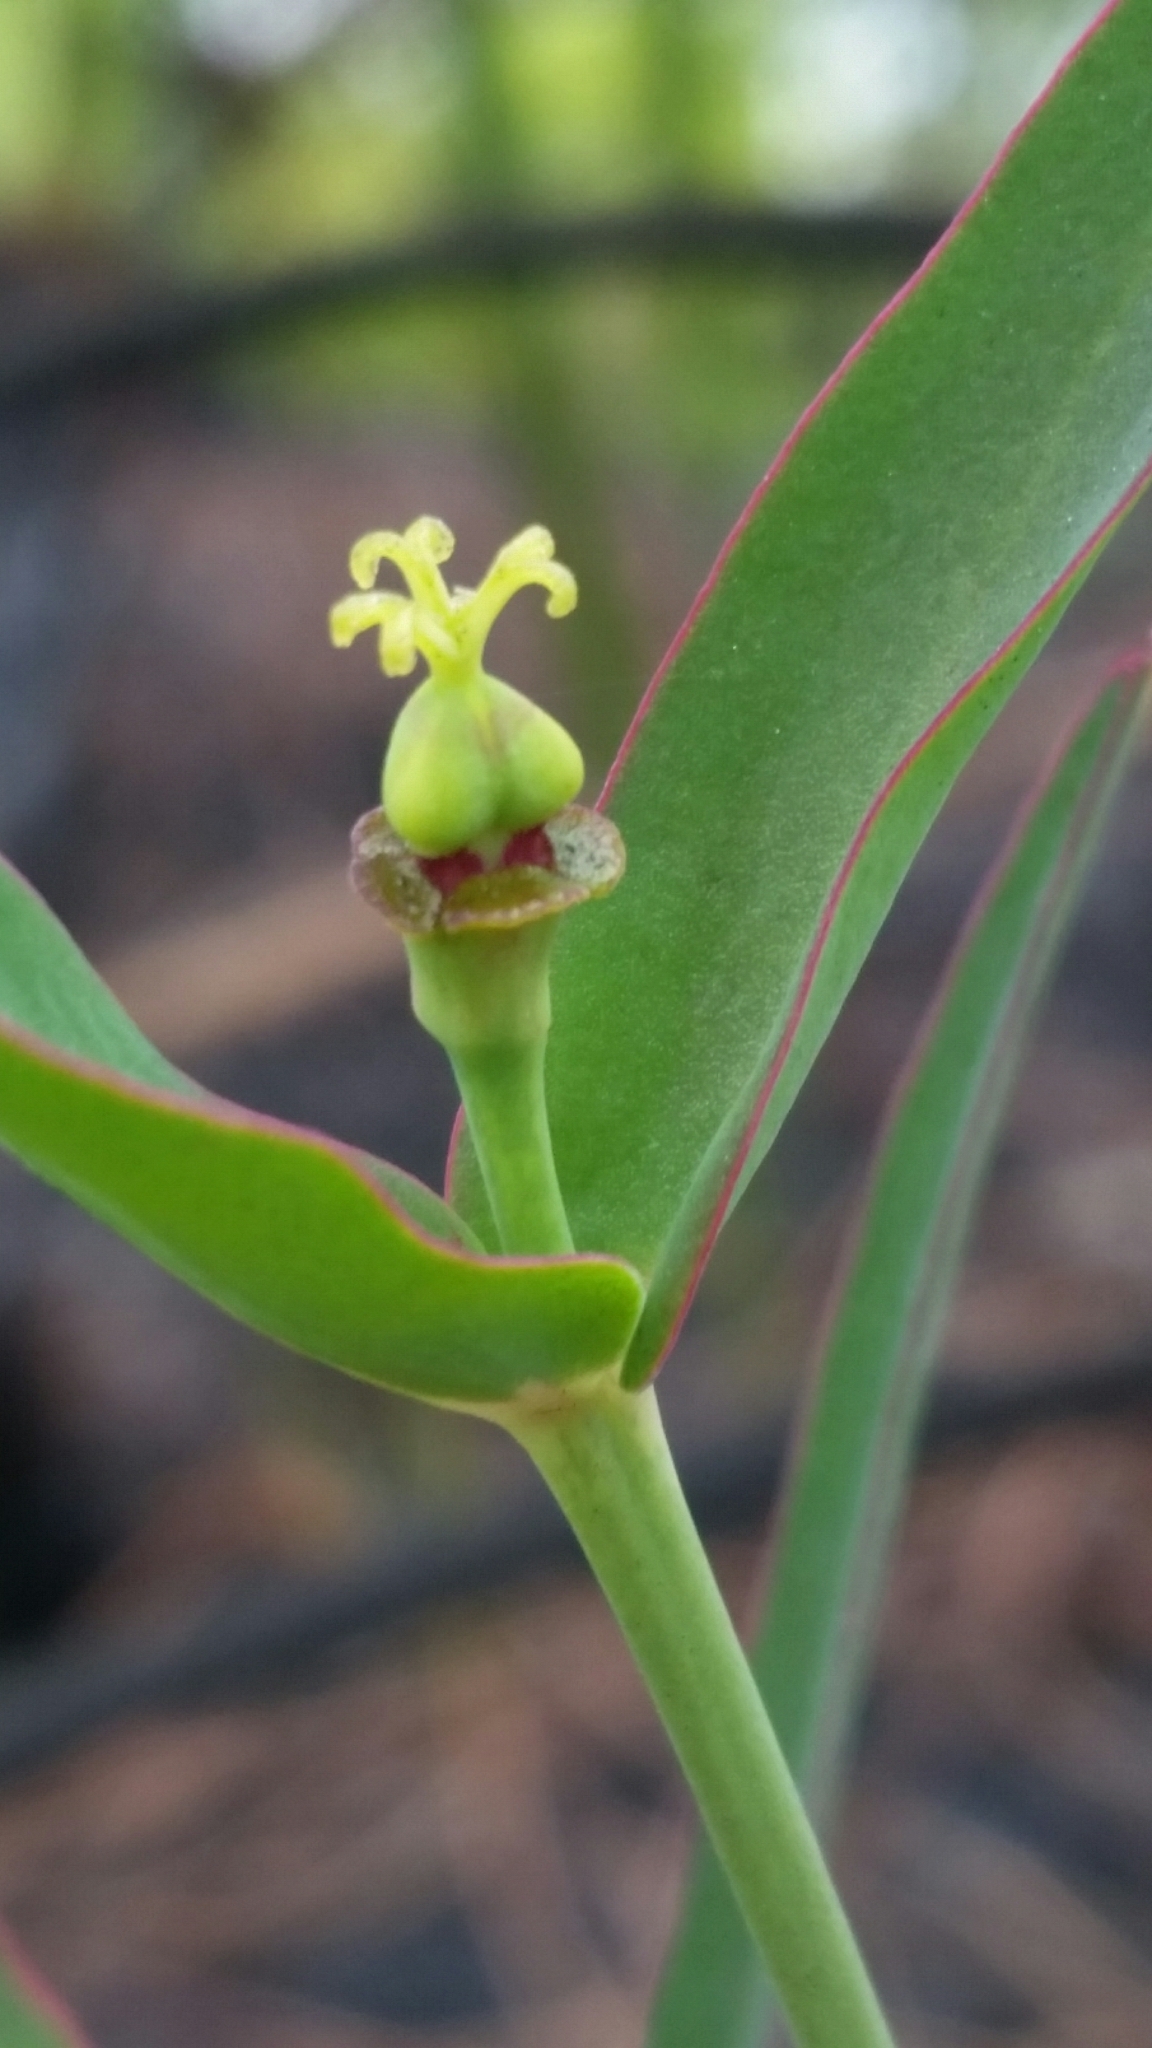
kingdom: Plantae
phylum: Tracheophyta
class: Magnoliopsida
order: Malpighiales
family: Euphorbiaceae
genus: Euphorbia
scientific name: Euphorbia inundata
